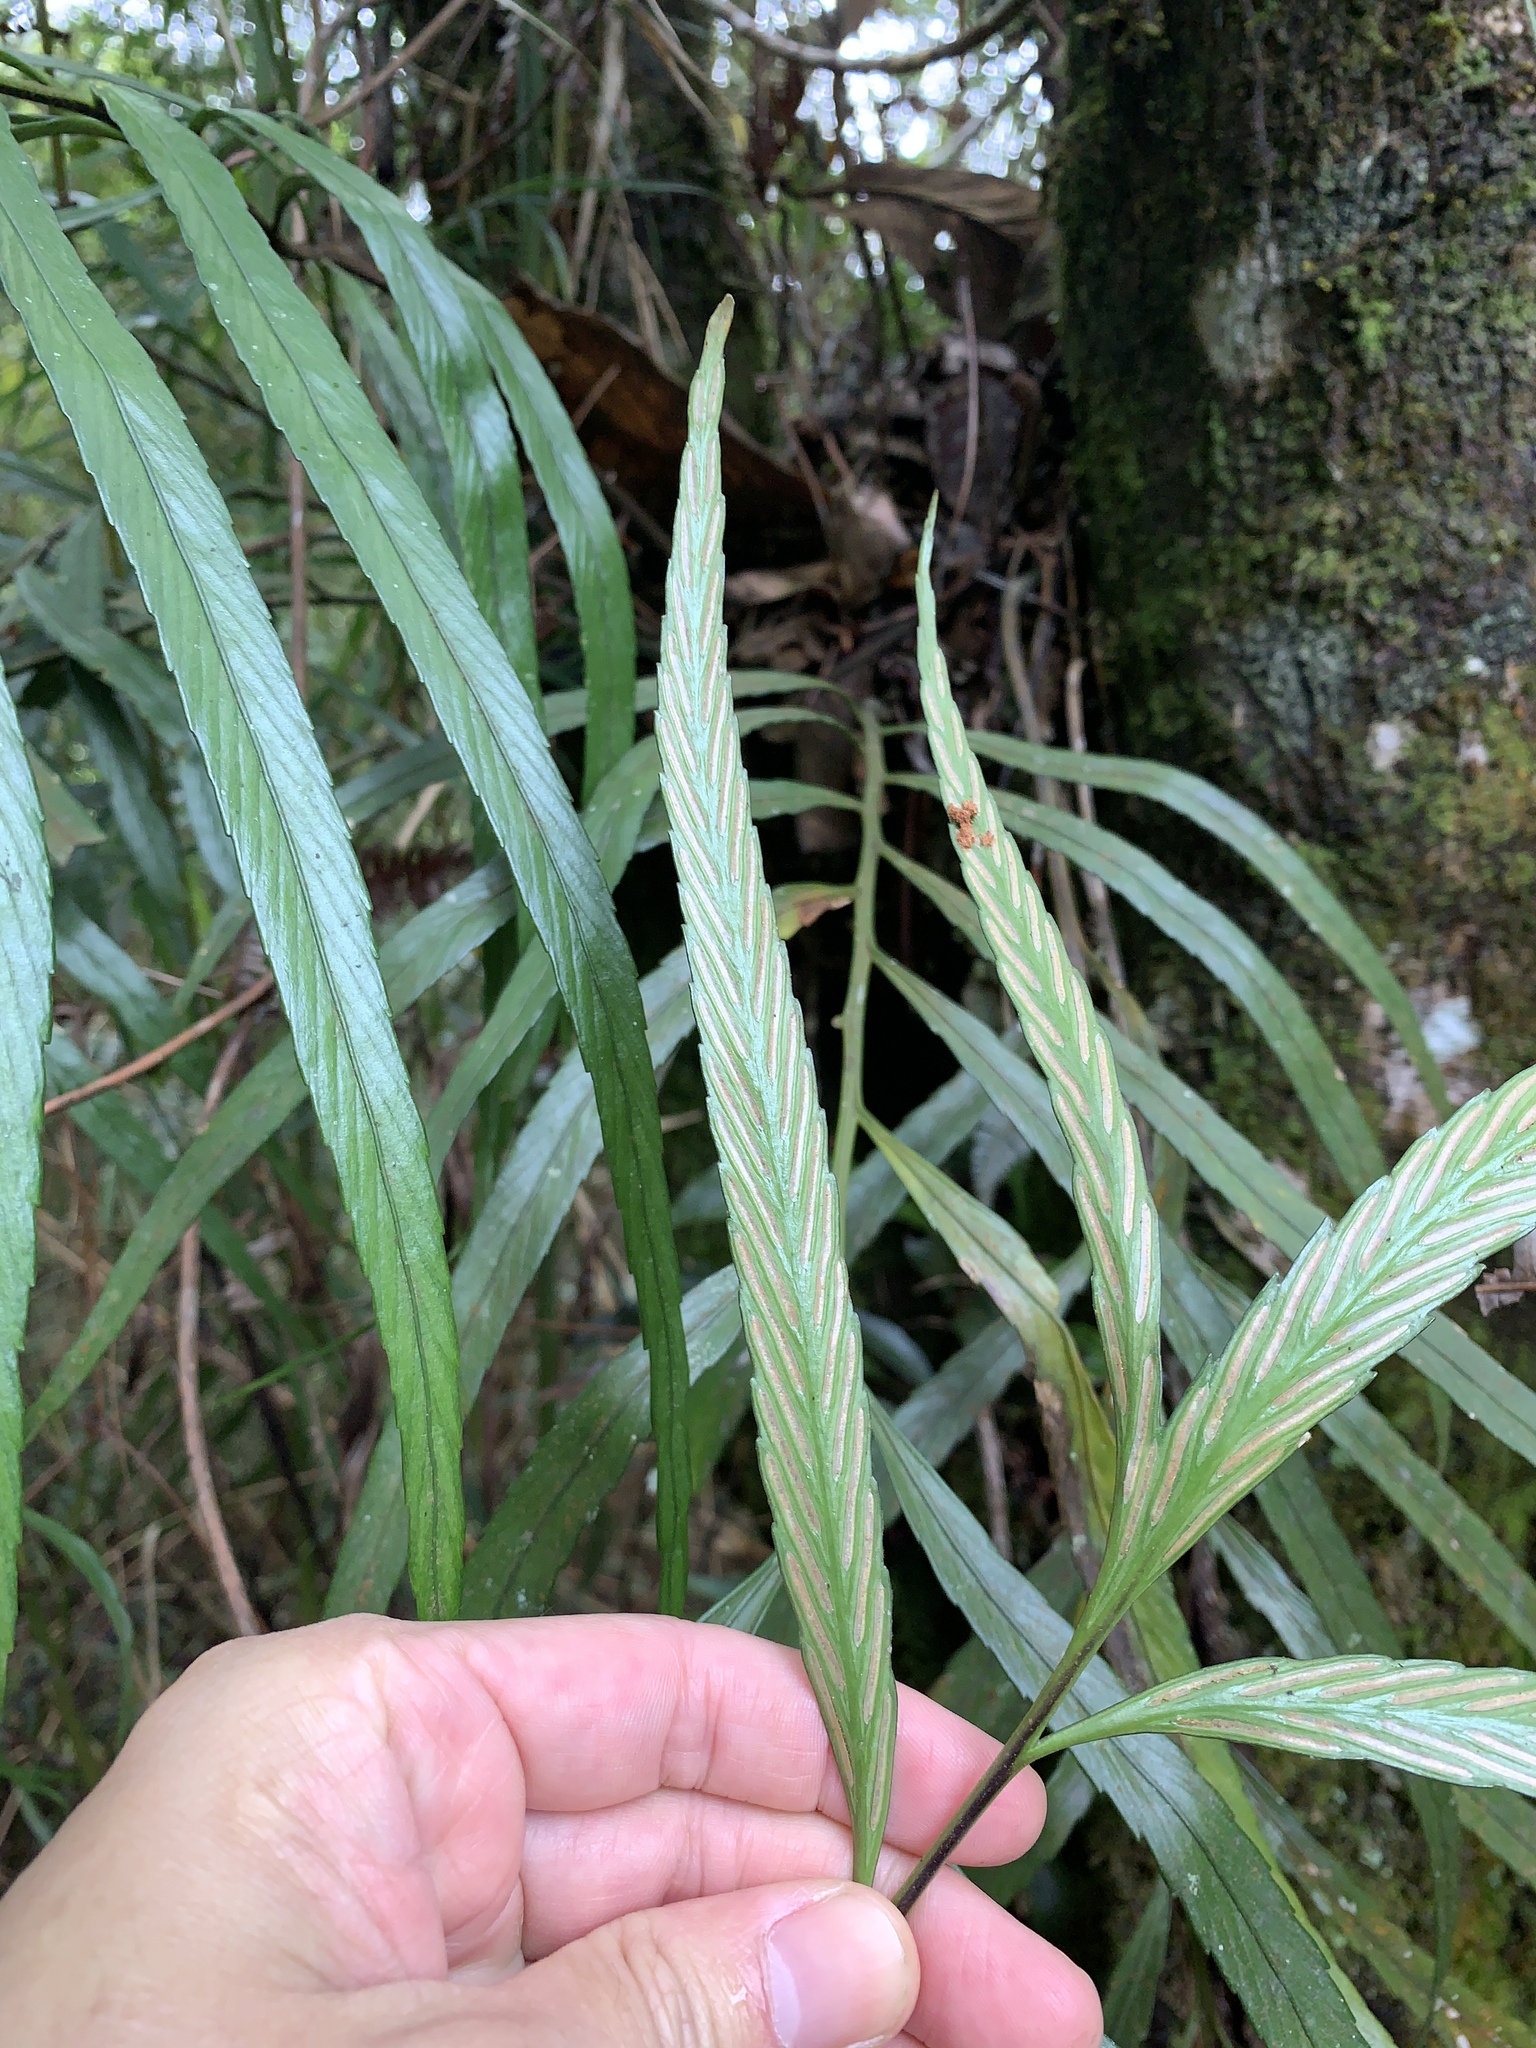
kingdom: Plantae
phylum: Tracheophyta
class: Polypodiopsida
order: Polypodiales
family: Aspleniaceae
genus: Asplenium
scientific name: Asplenium pachychlamys
